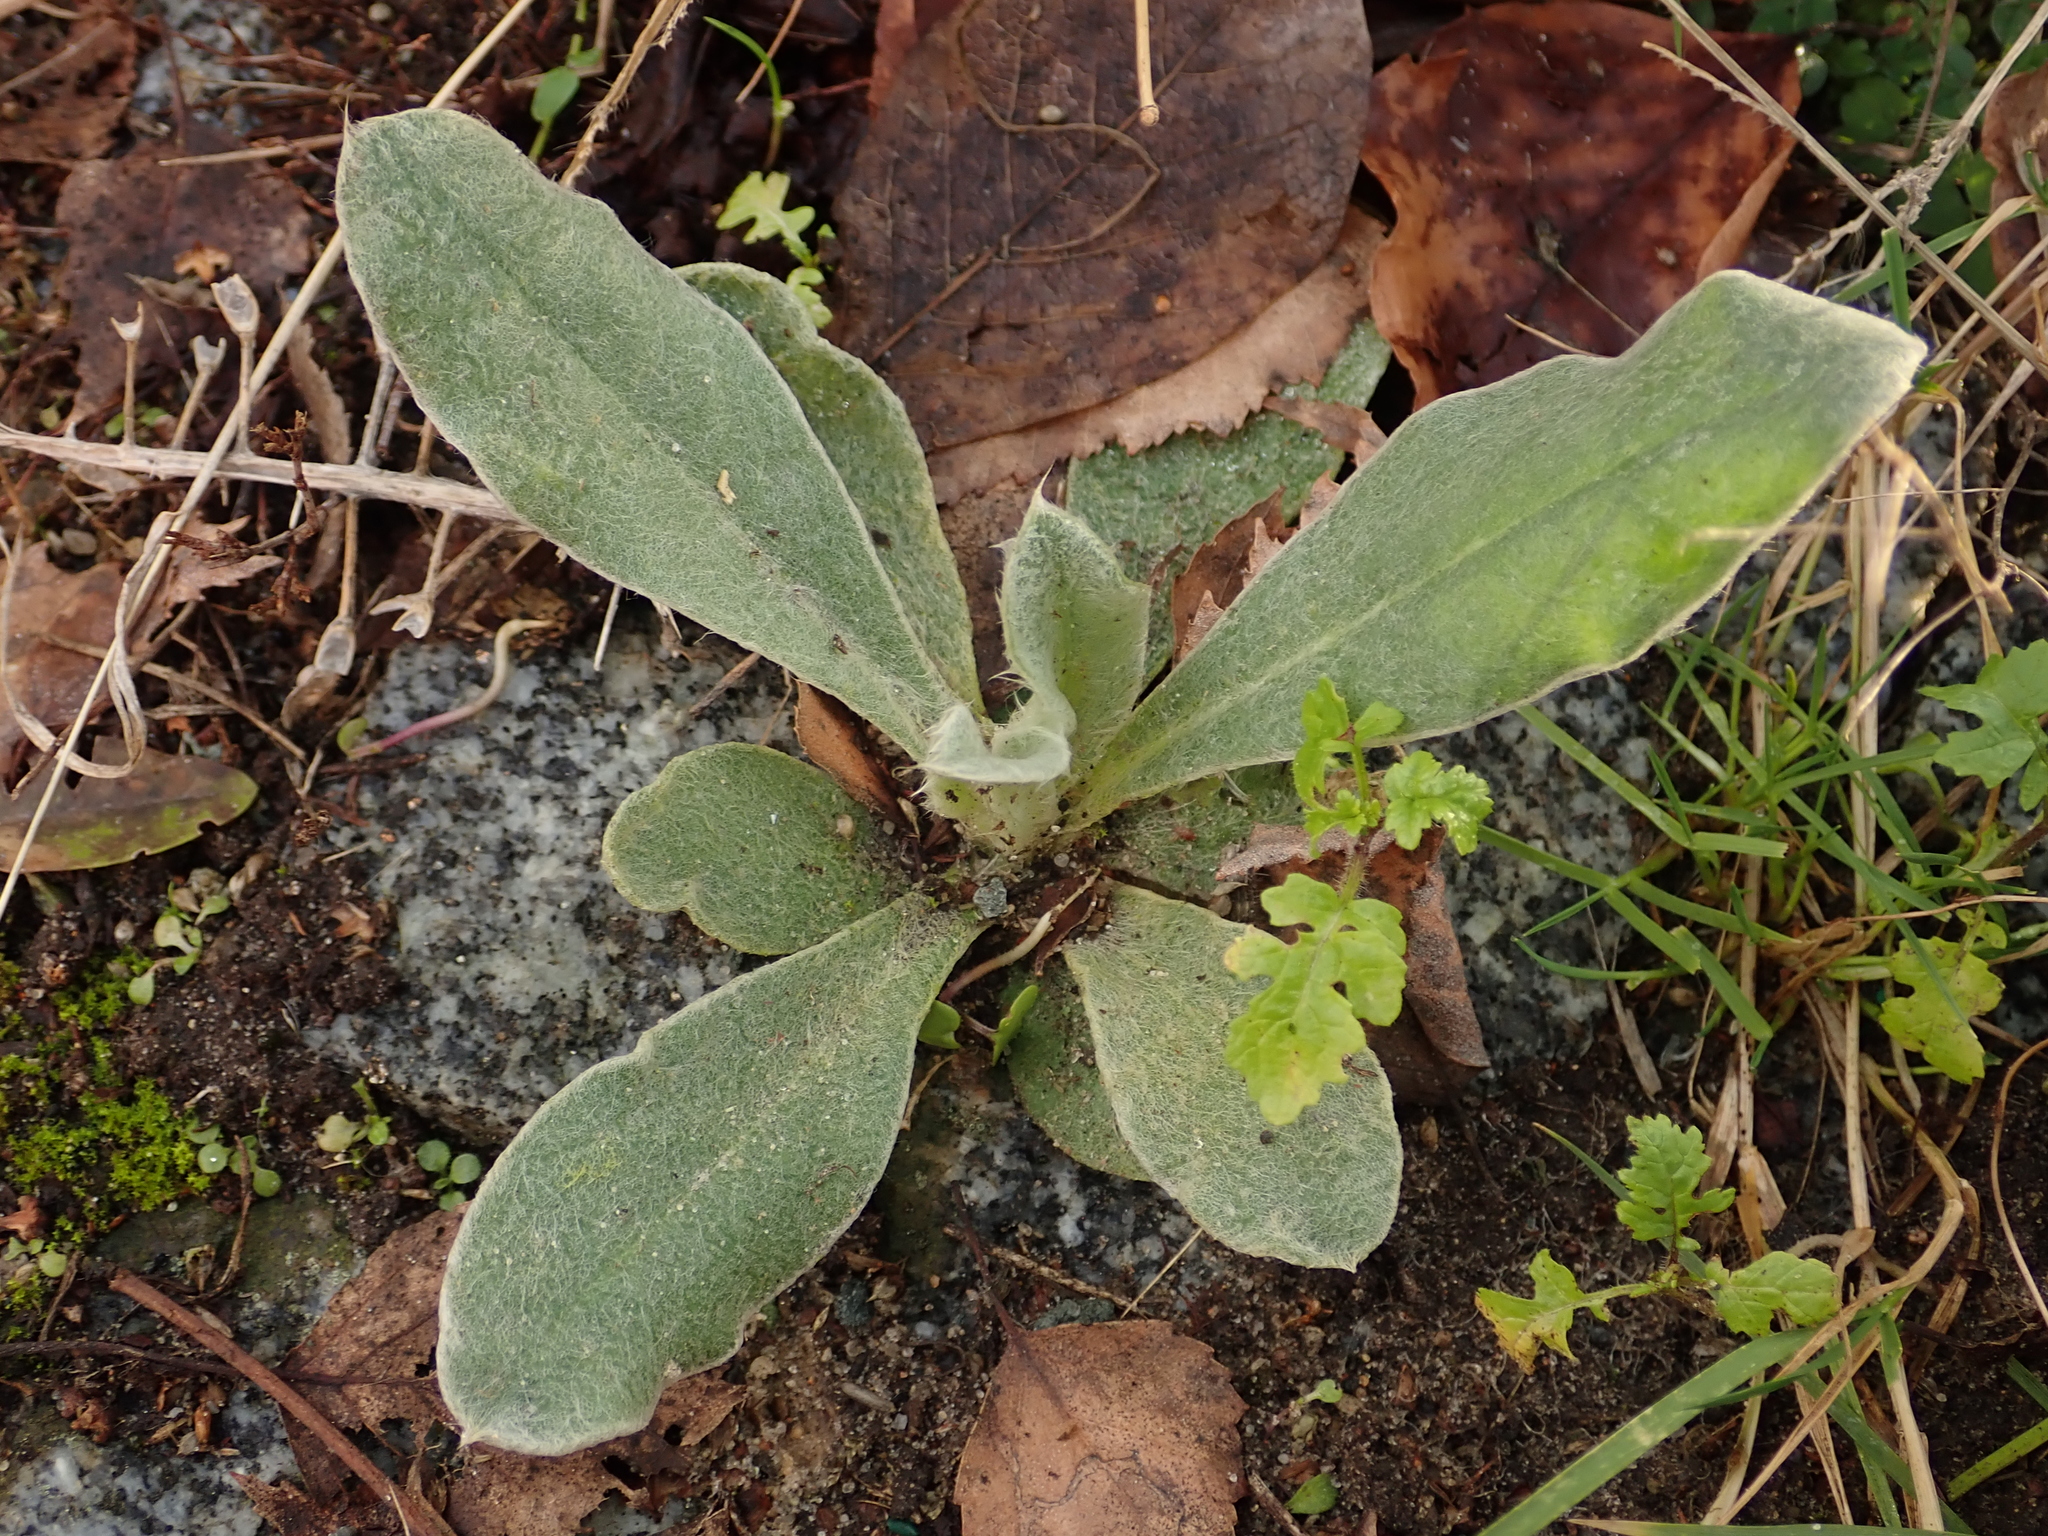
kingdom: Plantae
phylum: Tracheophyta
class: Magnoliopsida
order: Lamiales
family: Scrophulariaceae
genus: Verbascum
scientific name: Verbascum thapsus
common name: Common mullein
